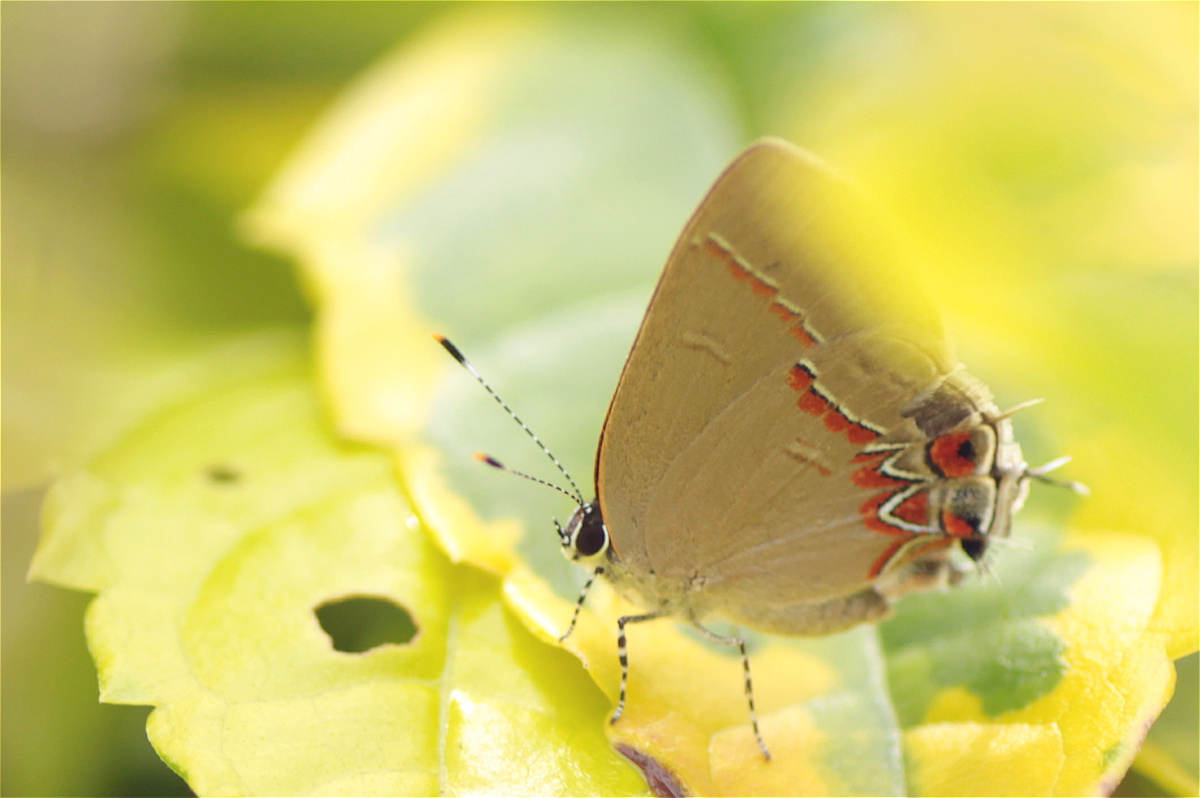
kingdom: Animalia
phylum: Arthropoda
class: Insecta
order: Lepidoptera
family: Lycaenidae
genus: Calycopis
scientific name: Calycopis isobeon
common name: Dusky-blue groundstreak
